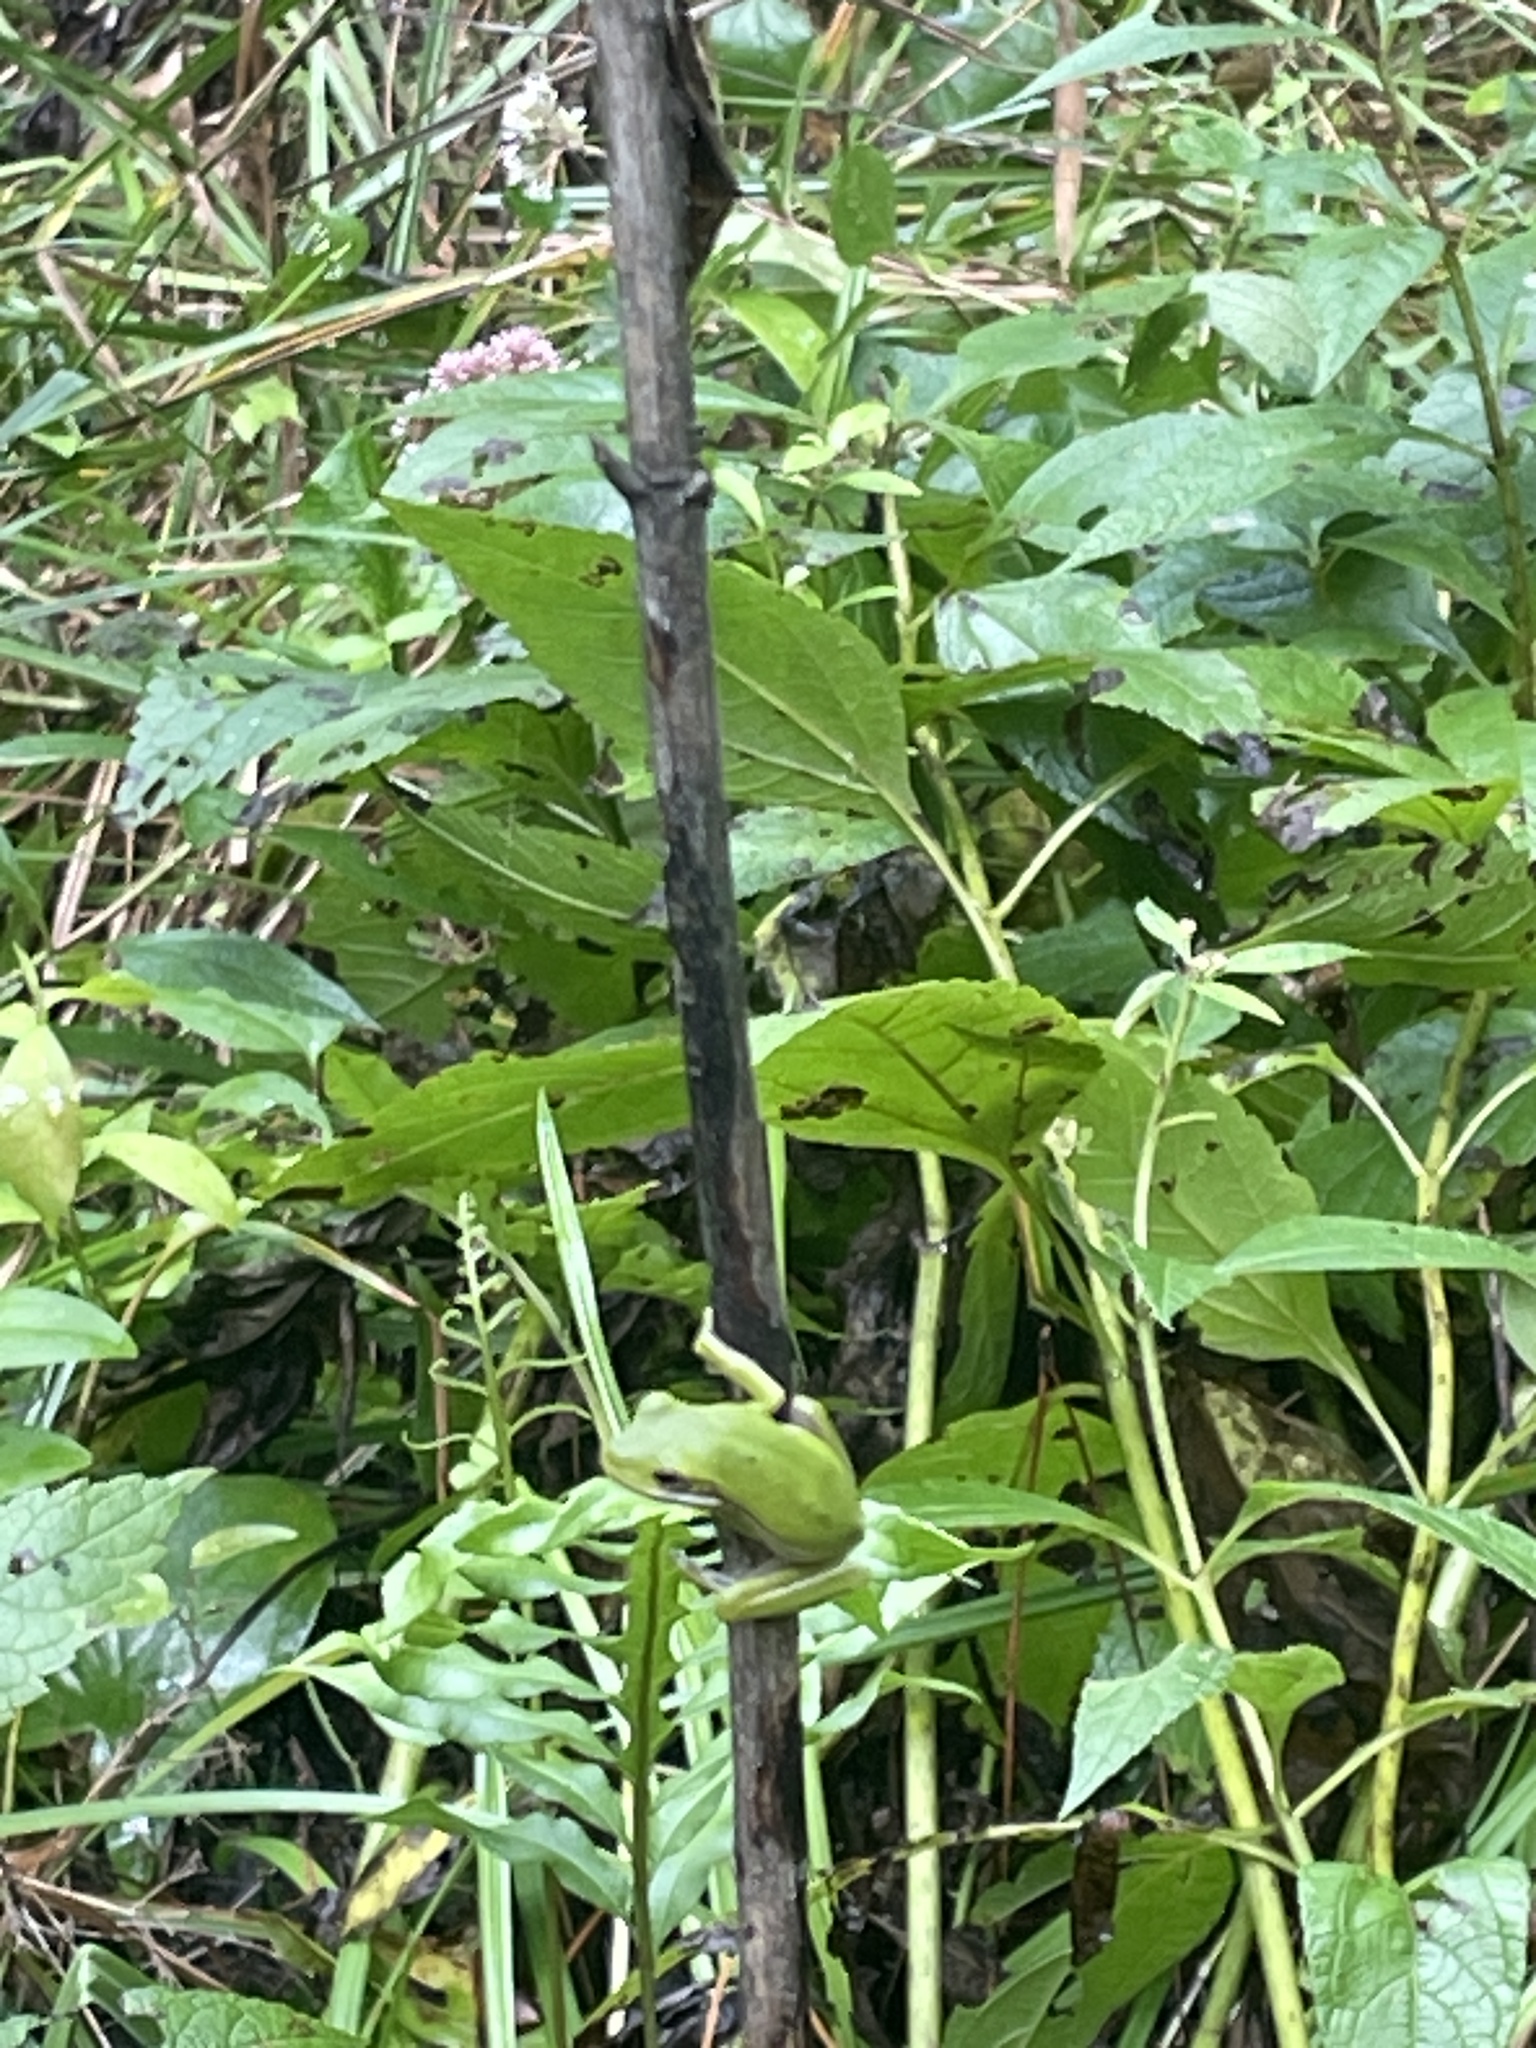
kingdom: Animalia
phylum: Chordata
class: Amphibia
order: Anura
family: Hylidae
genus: Dryophytes
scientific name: Dryophytes cinereus
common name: Green treefrog
